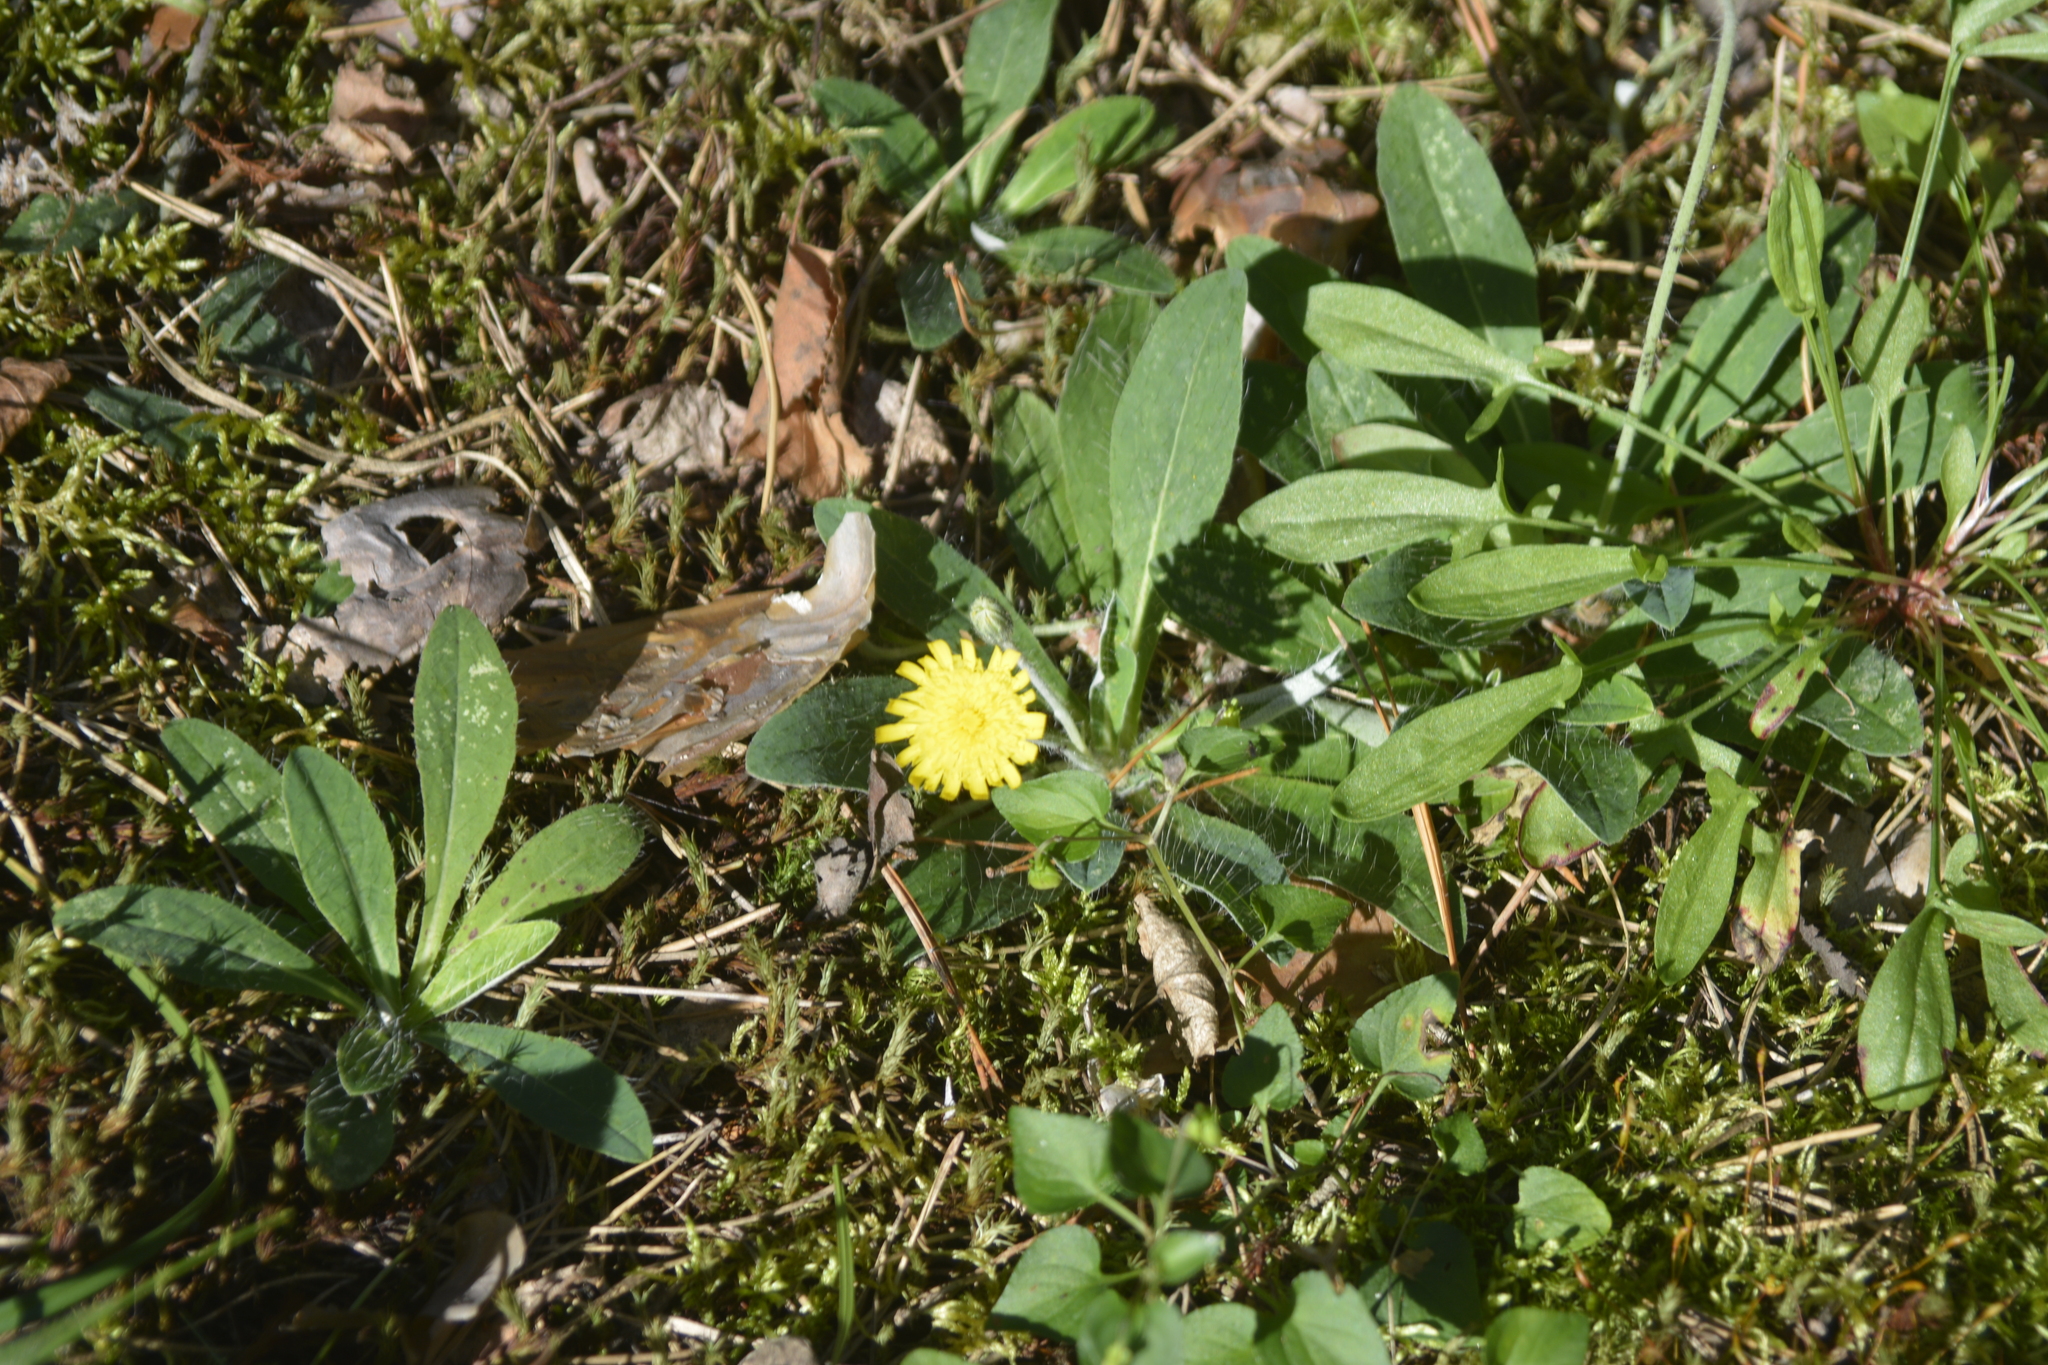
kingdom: Plantae
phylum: Tracheophyta
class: Magnoliopsida
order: Asterales
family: Asteraceae
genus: Pilosella
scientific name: Pilosella officinarum
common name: Mouse-ear hawkweed
